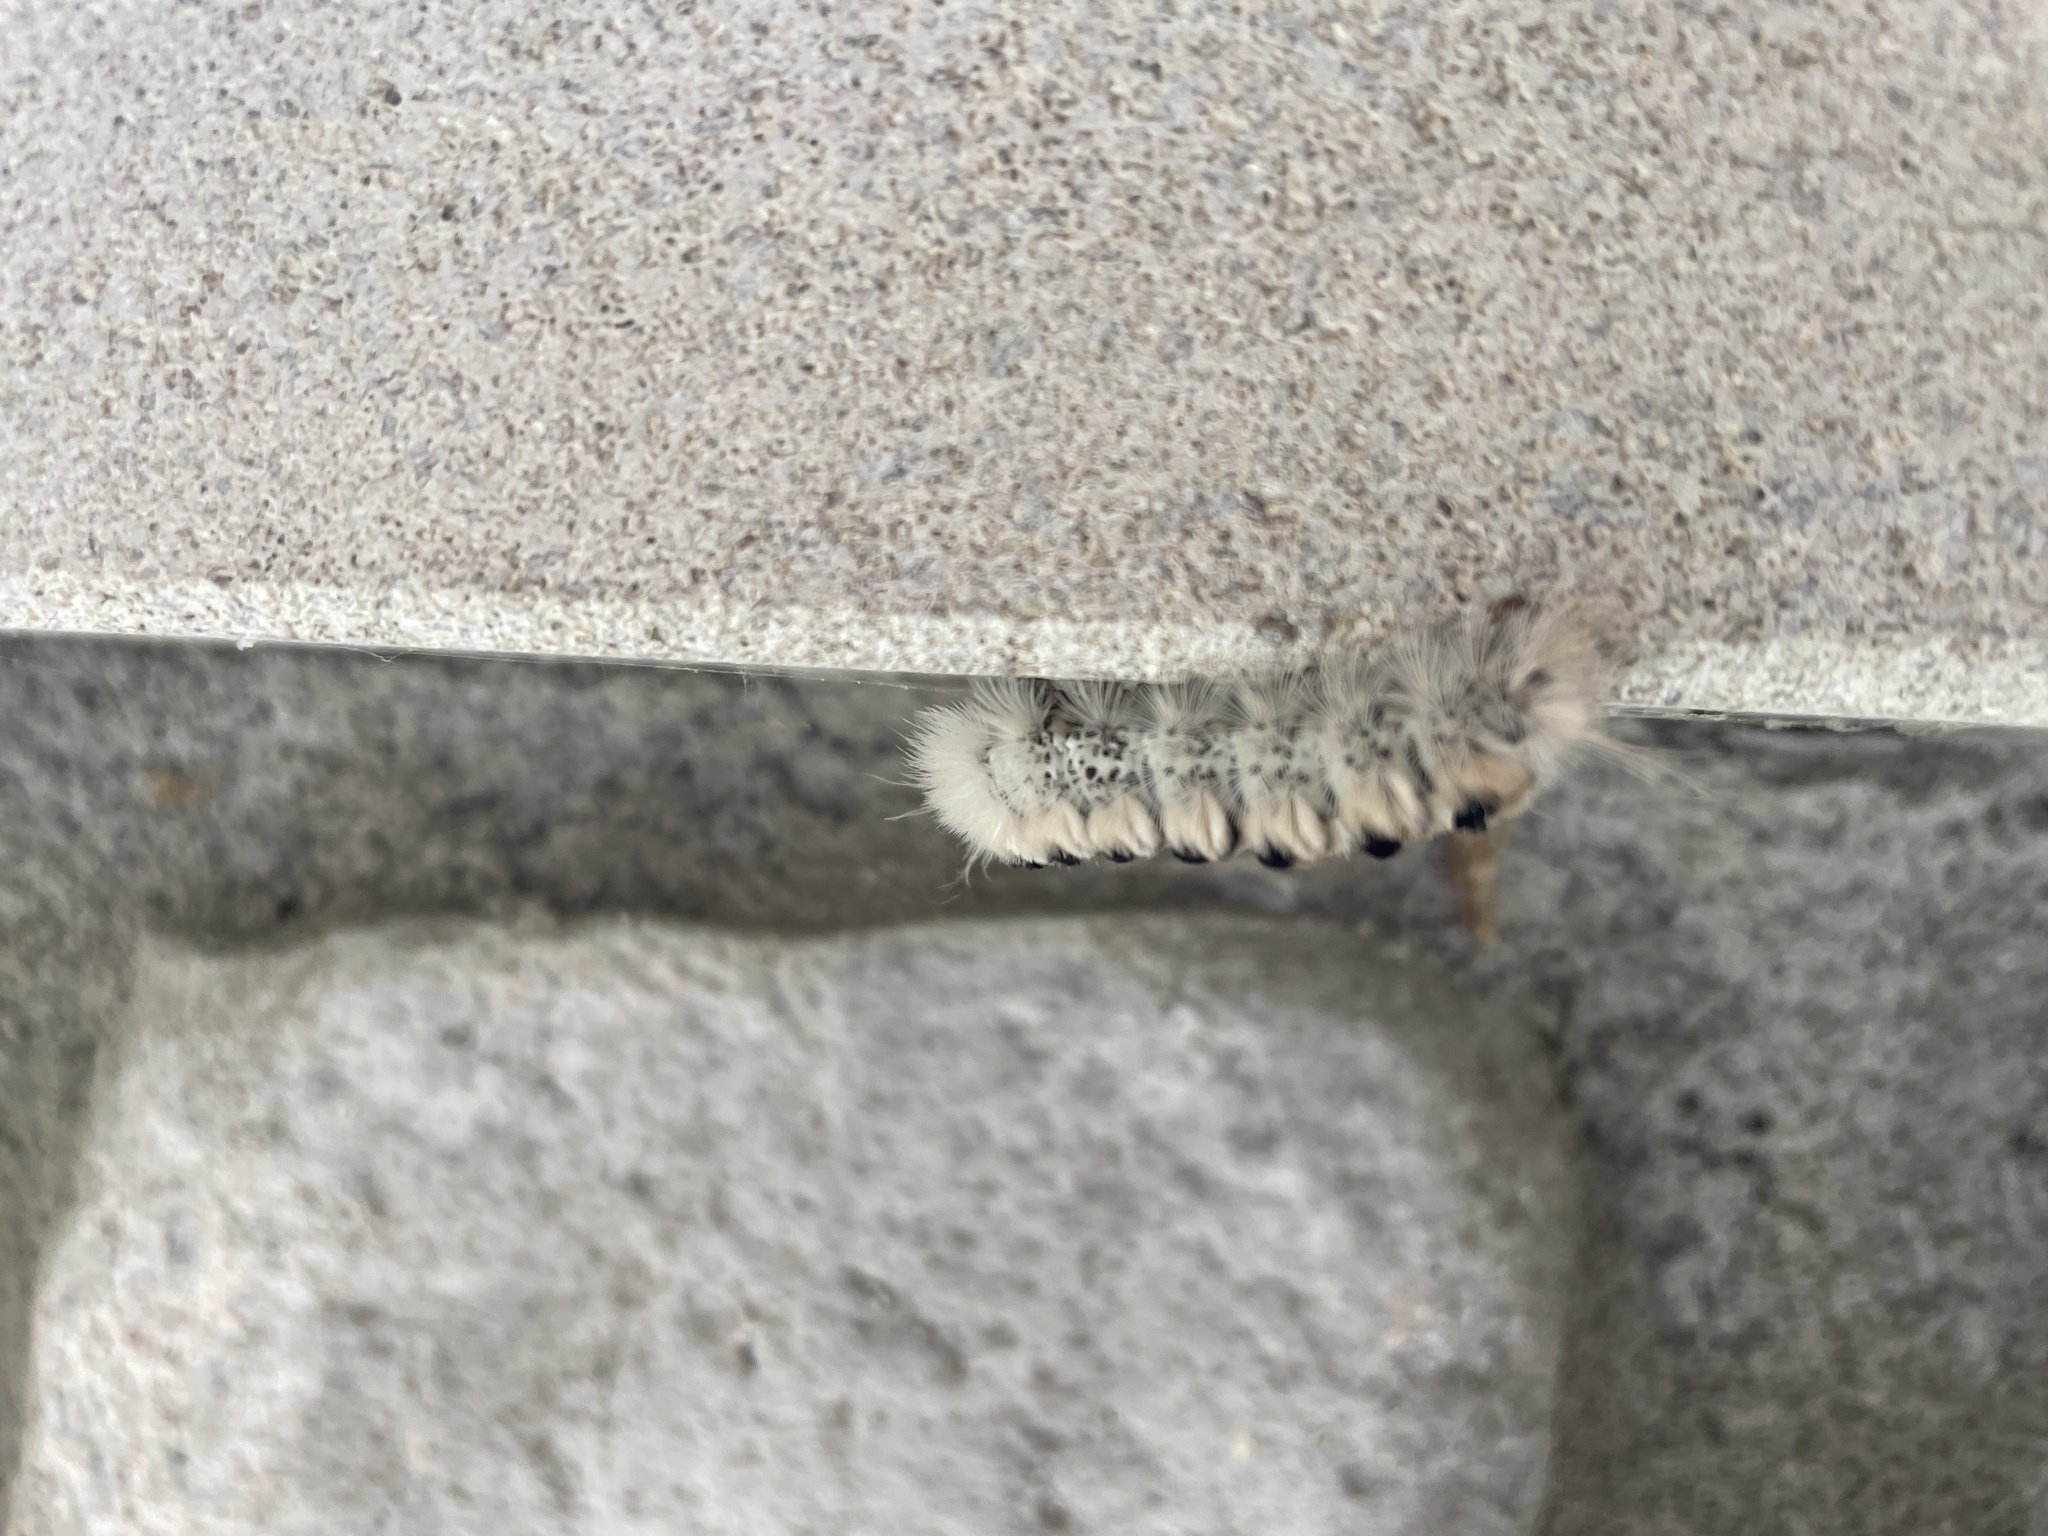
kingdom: Animalia
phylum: Arthropoda
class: Insecta
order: Lepidoptera
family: Erebidae
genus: Lophocampa
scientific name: Lophocampa caryae
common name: Hickory tussock moth
